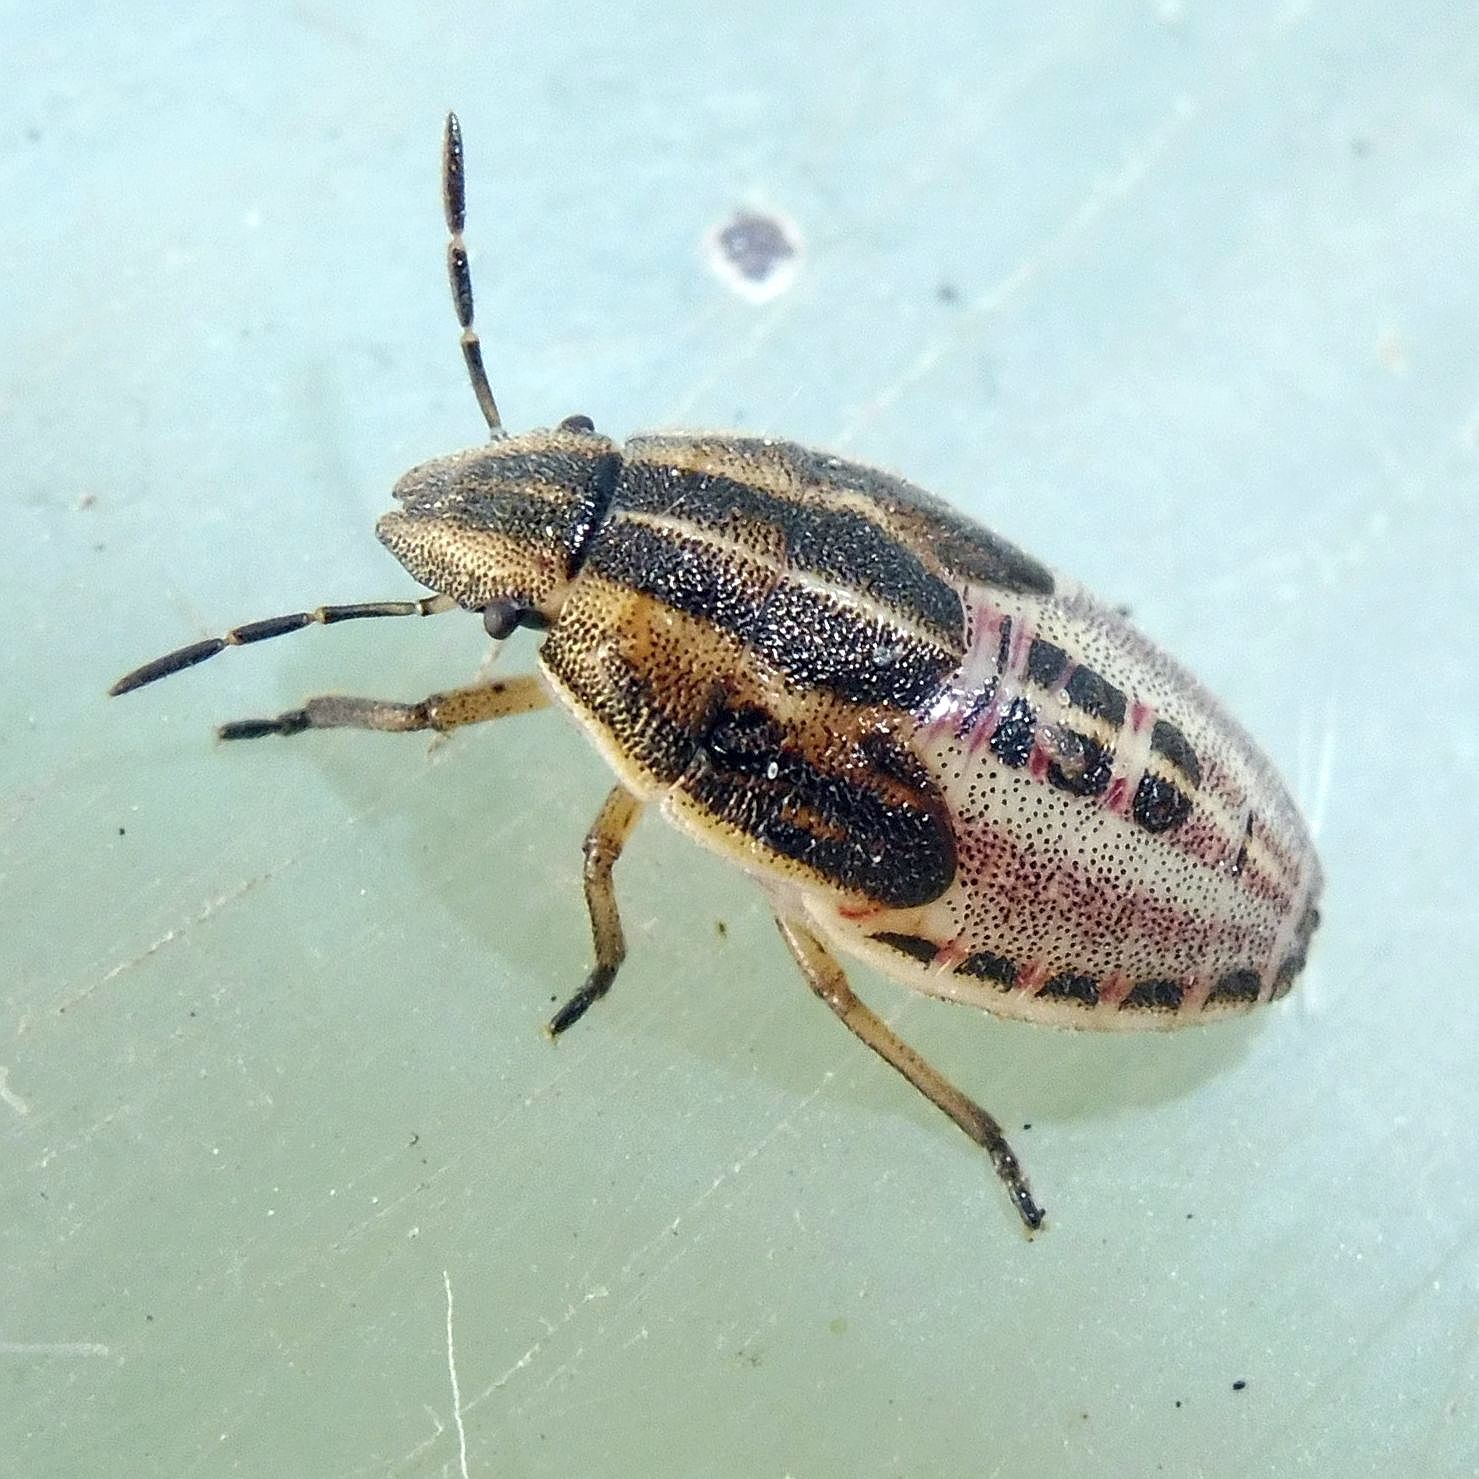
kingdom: Animalia
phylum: Arthropoda
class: Insecta
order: Hemiptera
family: Pentatomidae
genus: Aelia
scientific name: Aelia acuminata
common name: Bishop's mitre
